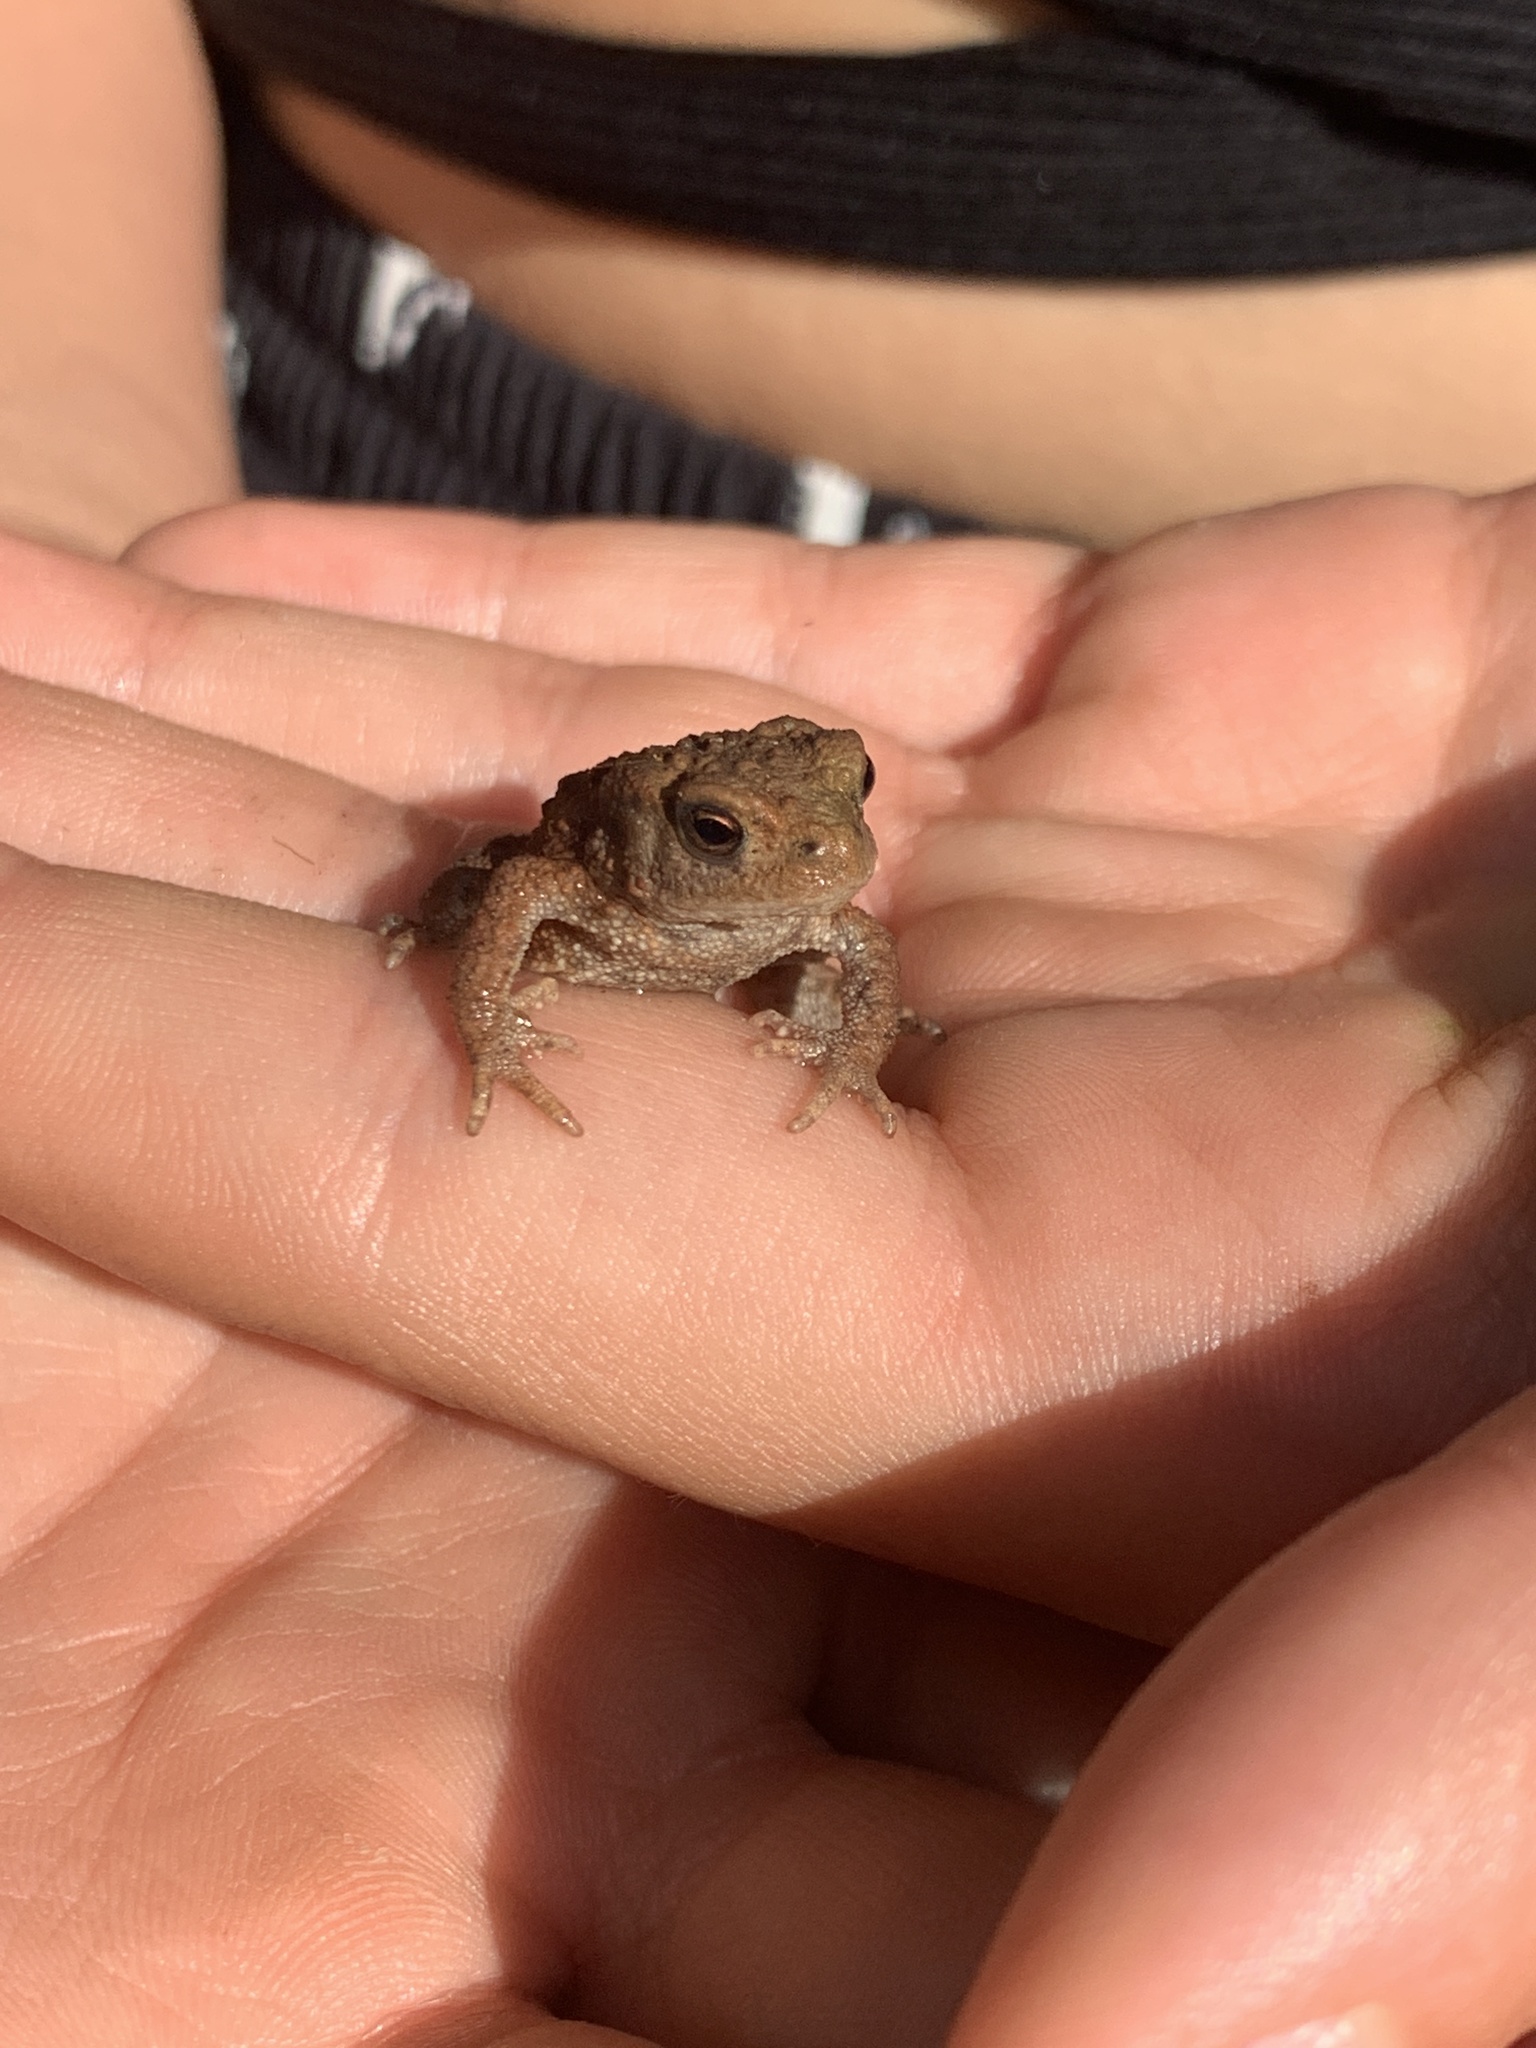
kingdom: Animalia
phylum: Chordata
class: Amphibia
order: Anura
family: Bufonidae
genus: Bufo
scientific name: Bufo bufo
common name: Common toad
